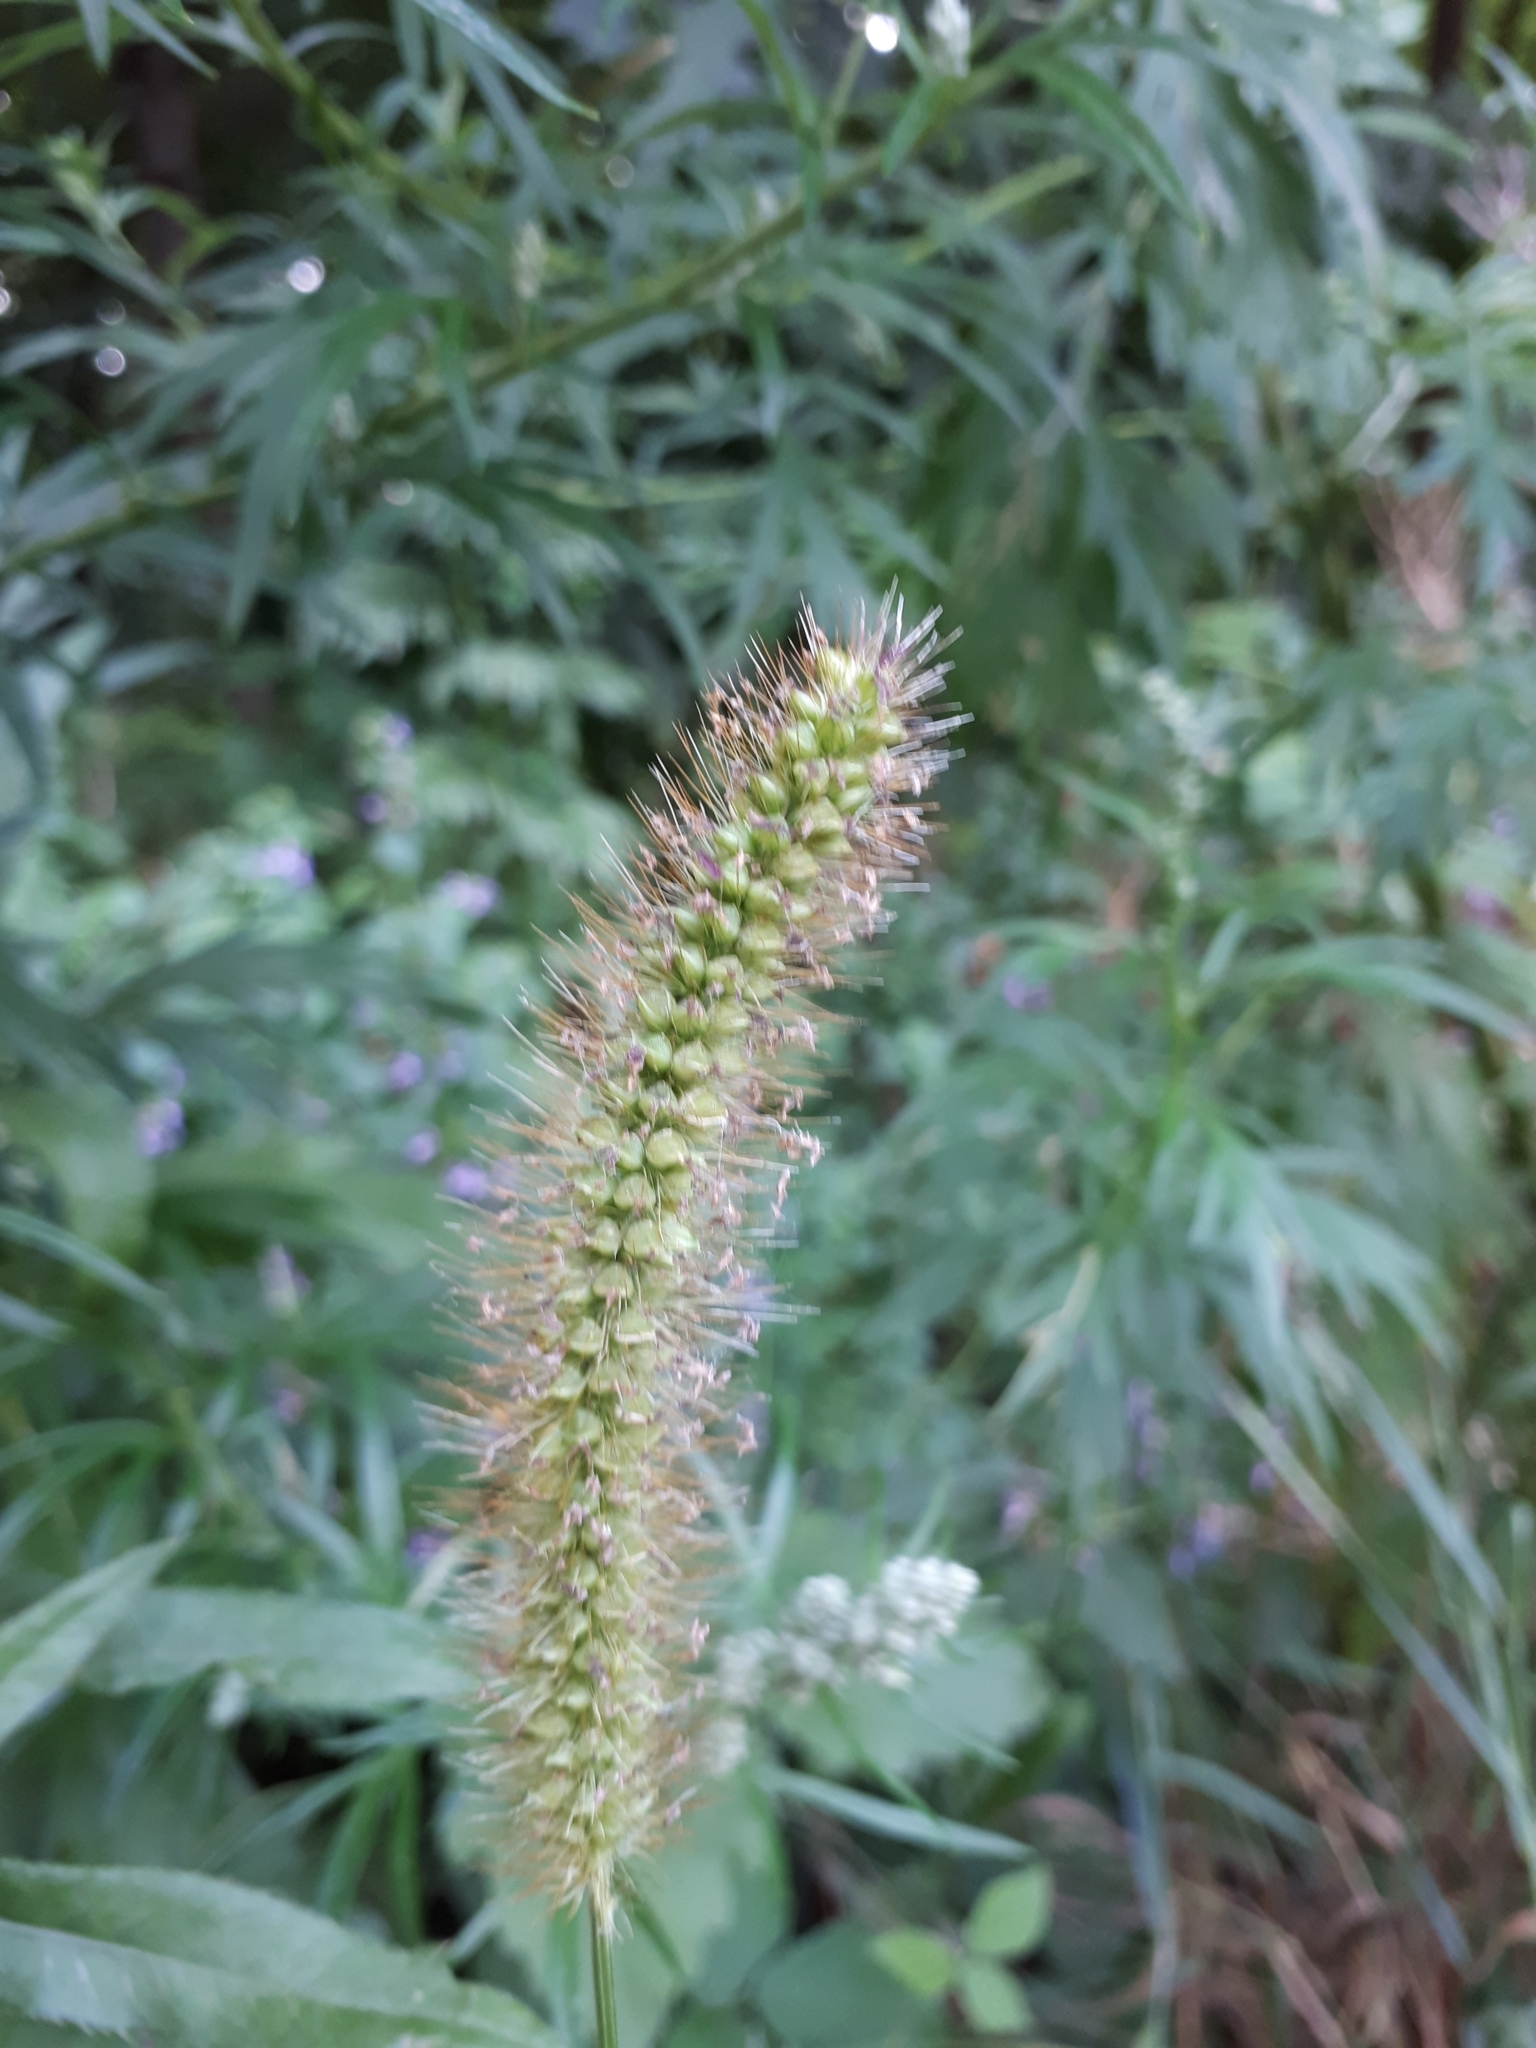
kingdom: Plantae
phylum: Tracheophyta
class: Liliopsida
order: Poales
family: Poaceae
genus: Setaria
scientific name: Setaria pumila
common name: Yellow bristle-grass
